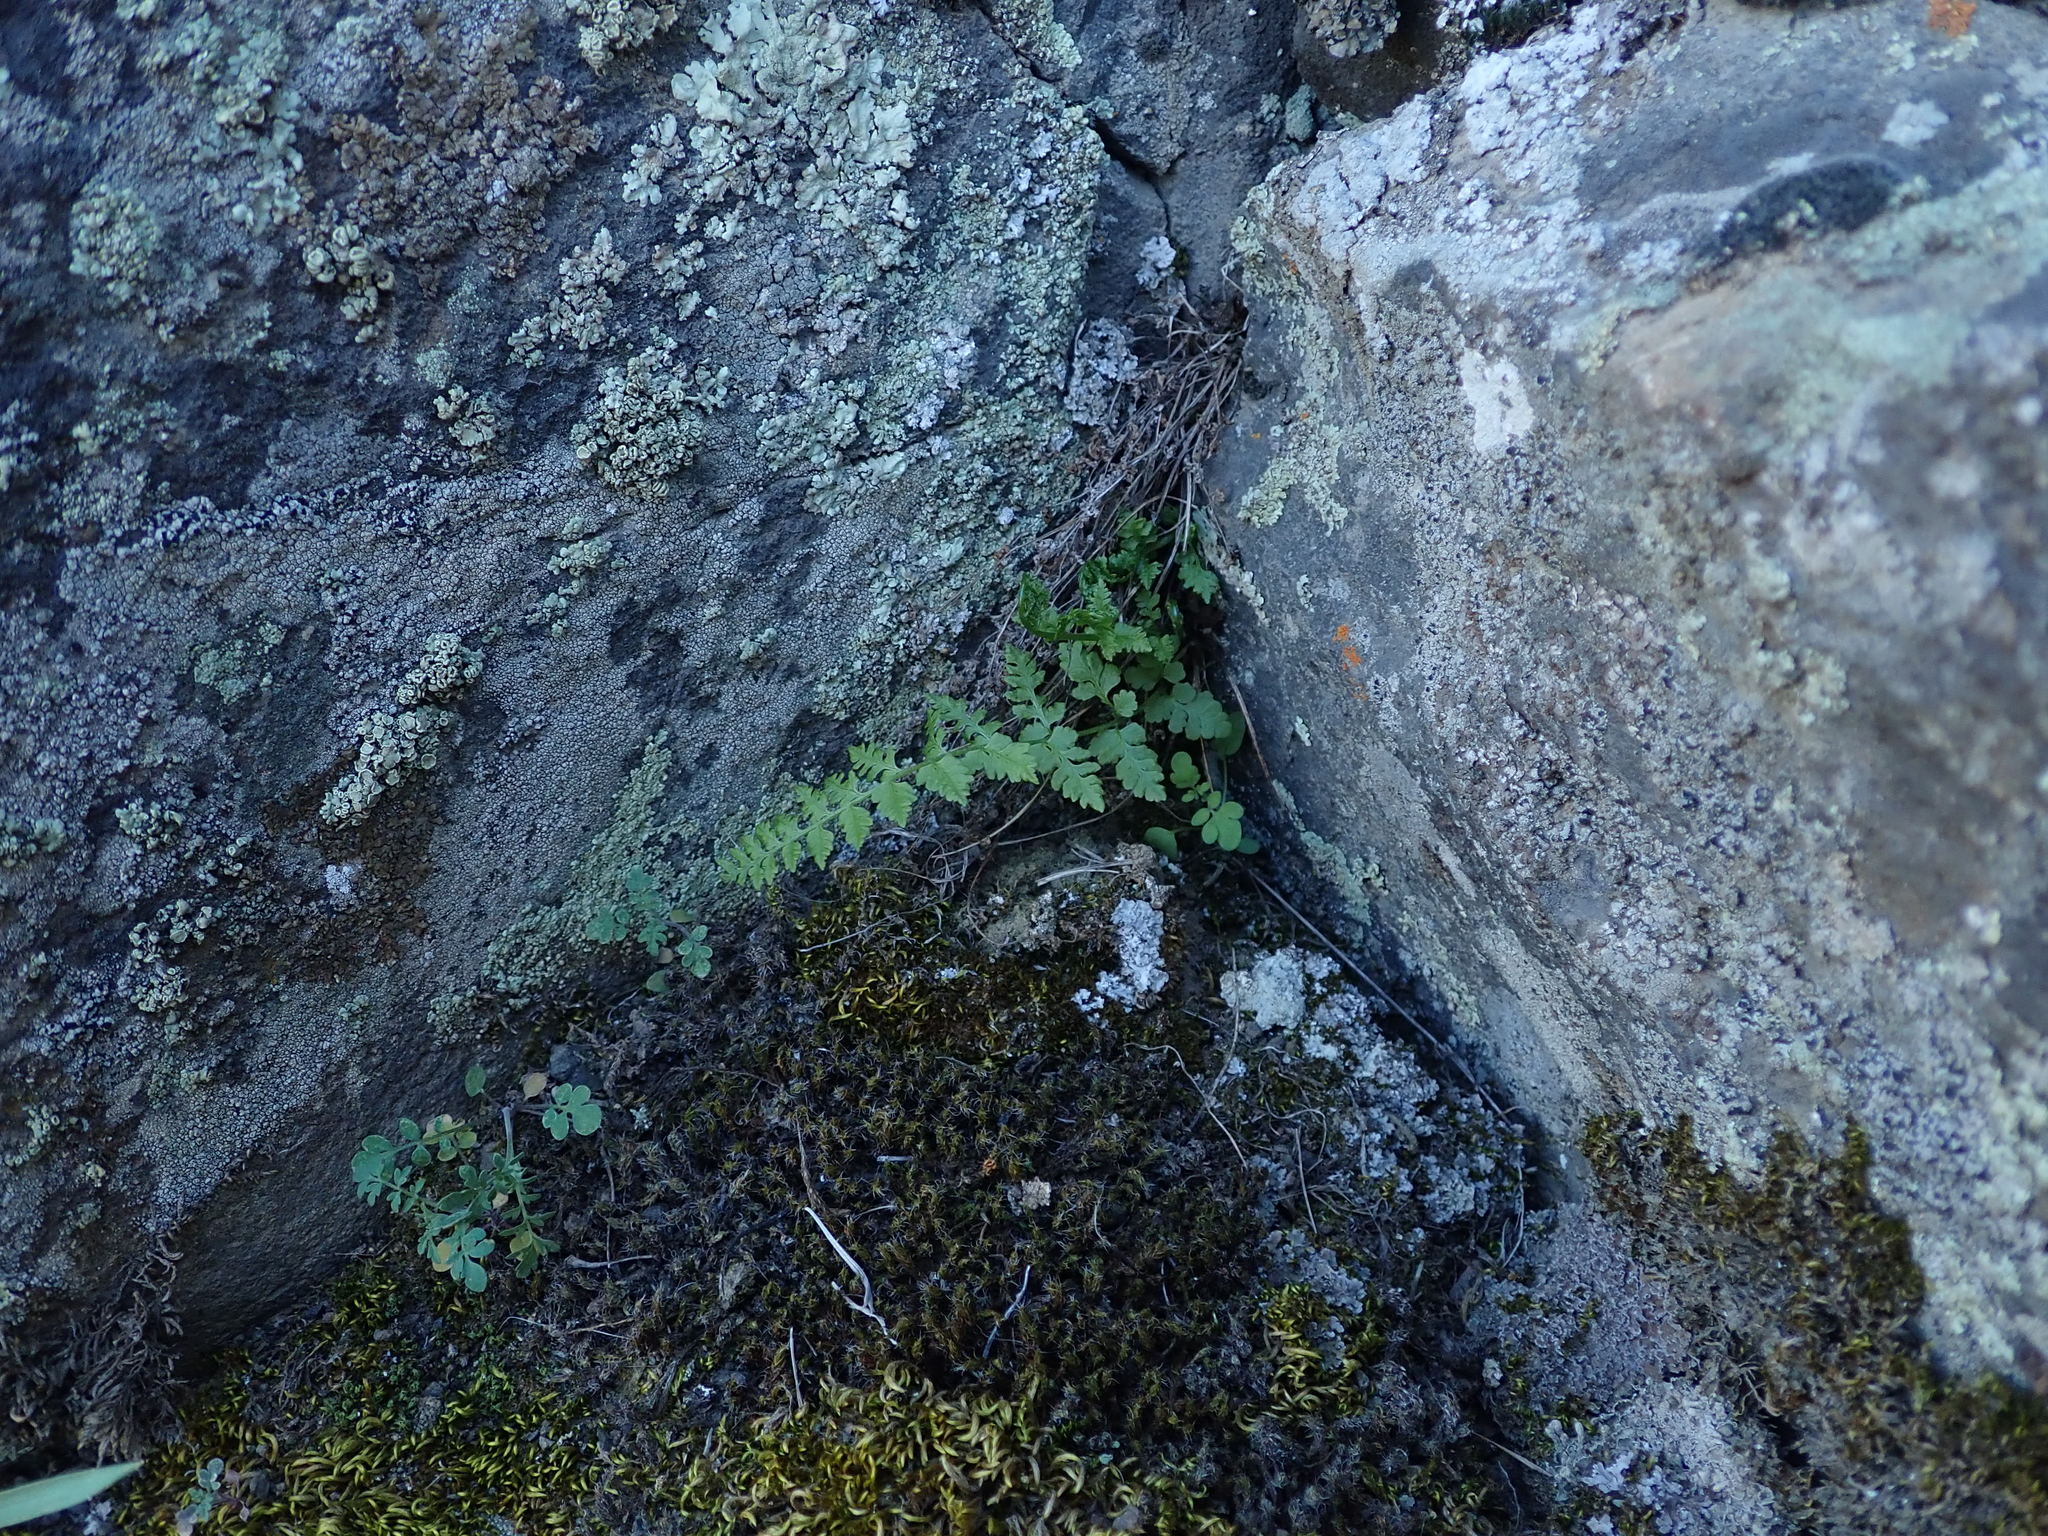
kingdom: Plantae
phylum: Tracheophyta
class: Polypodiopsida
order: Polypodiales
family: Woodsiaceae
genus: Physematium
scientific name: Physematium scopulinum
